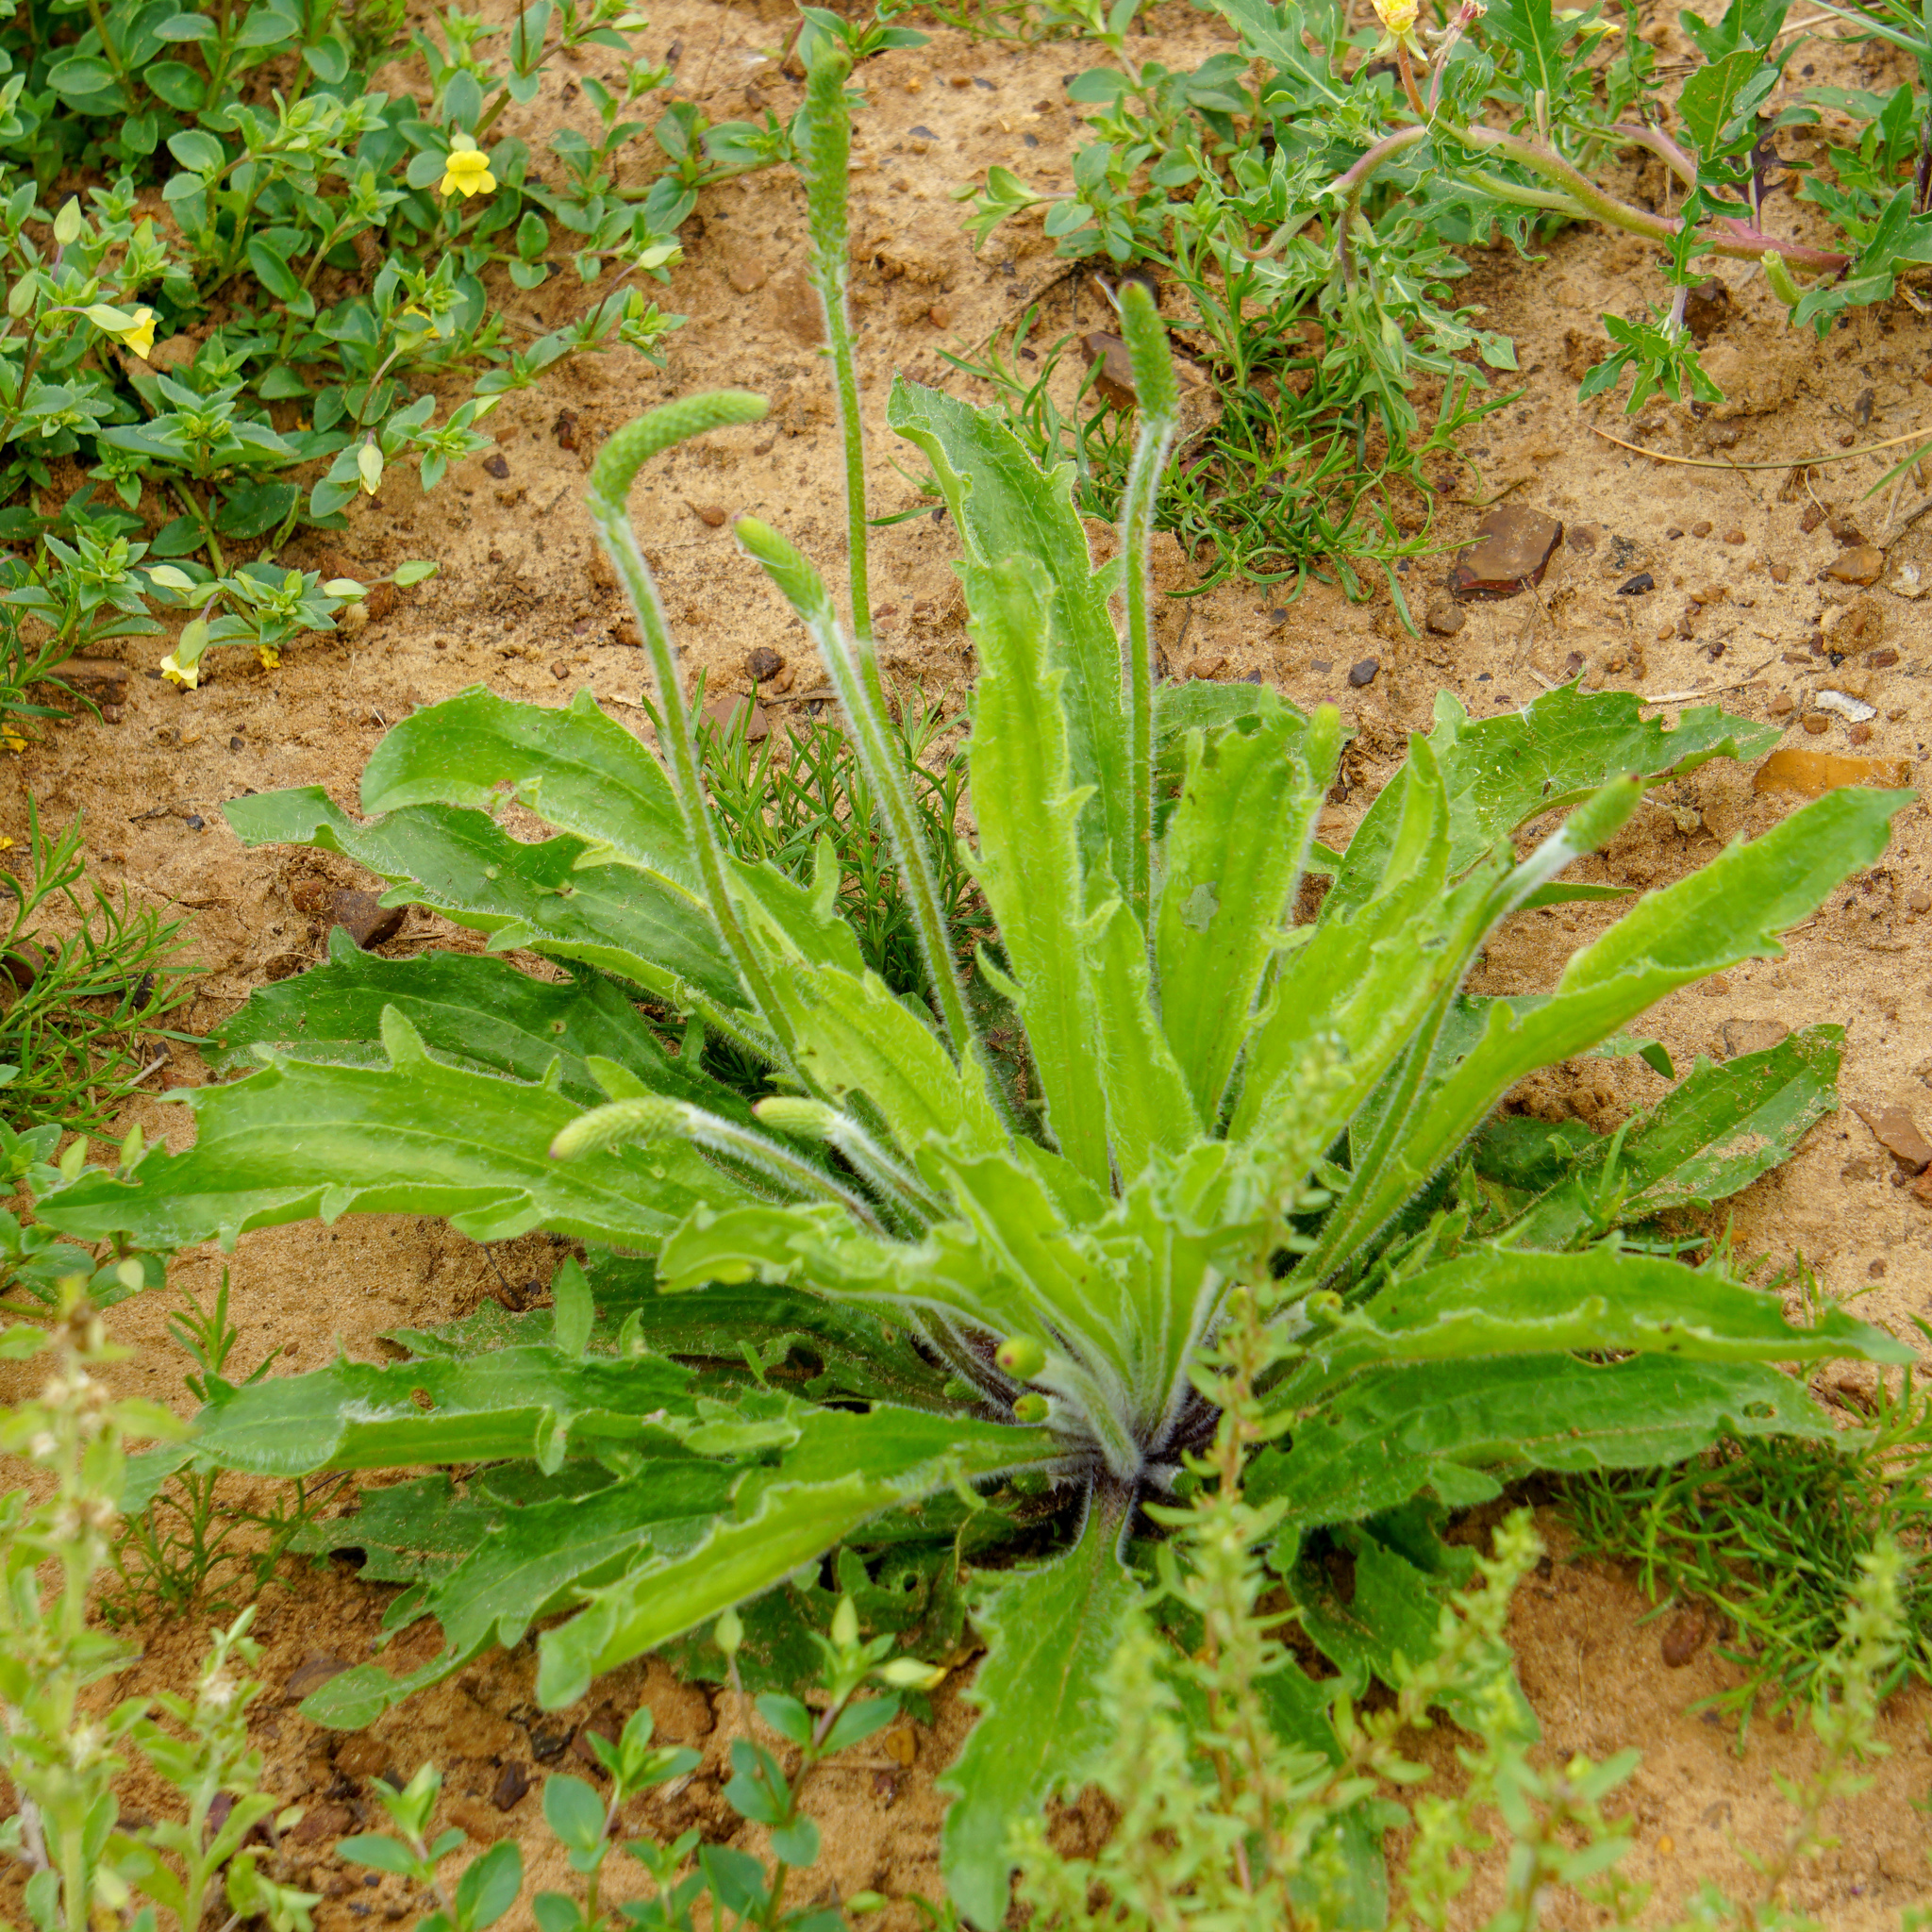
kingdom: Plantae
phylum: Tracheophyta
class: Magnoliopsida
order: Lamiales
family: Plantaginaceae
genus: Plantago
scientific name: Plantago rhodosperma
